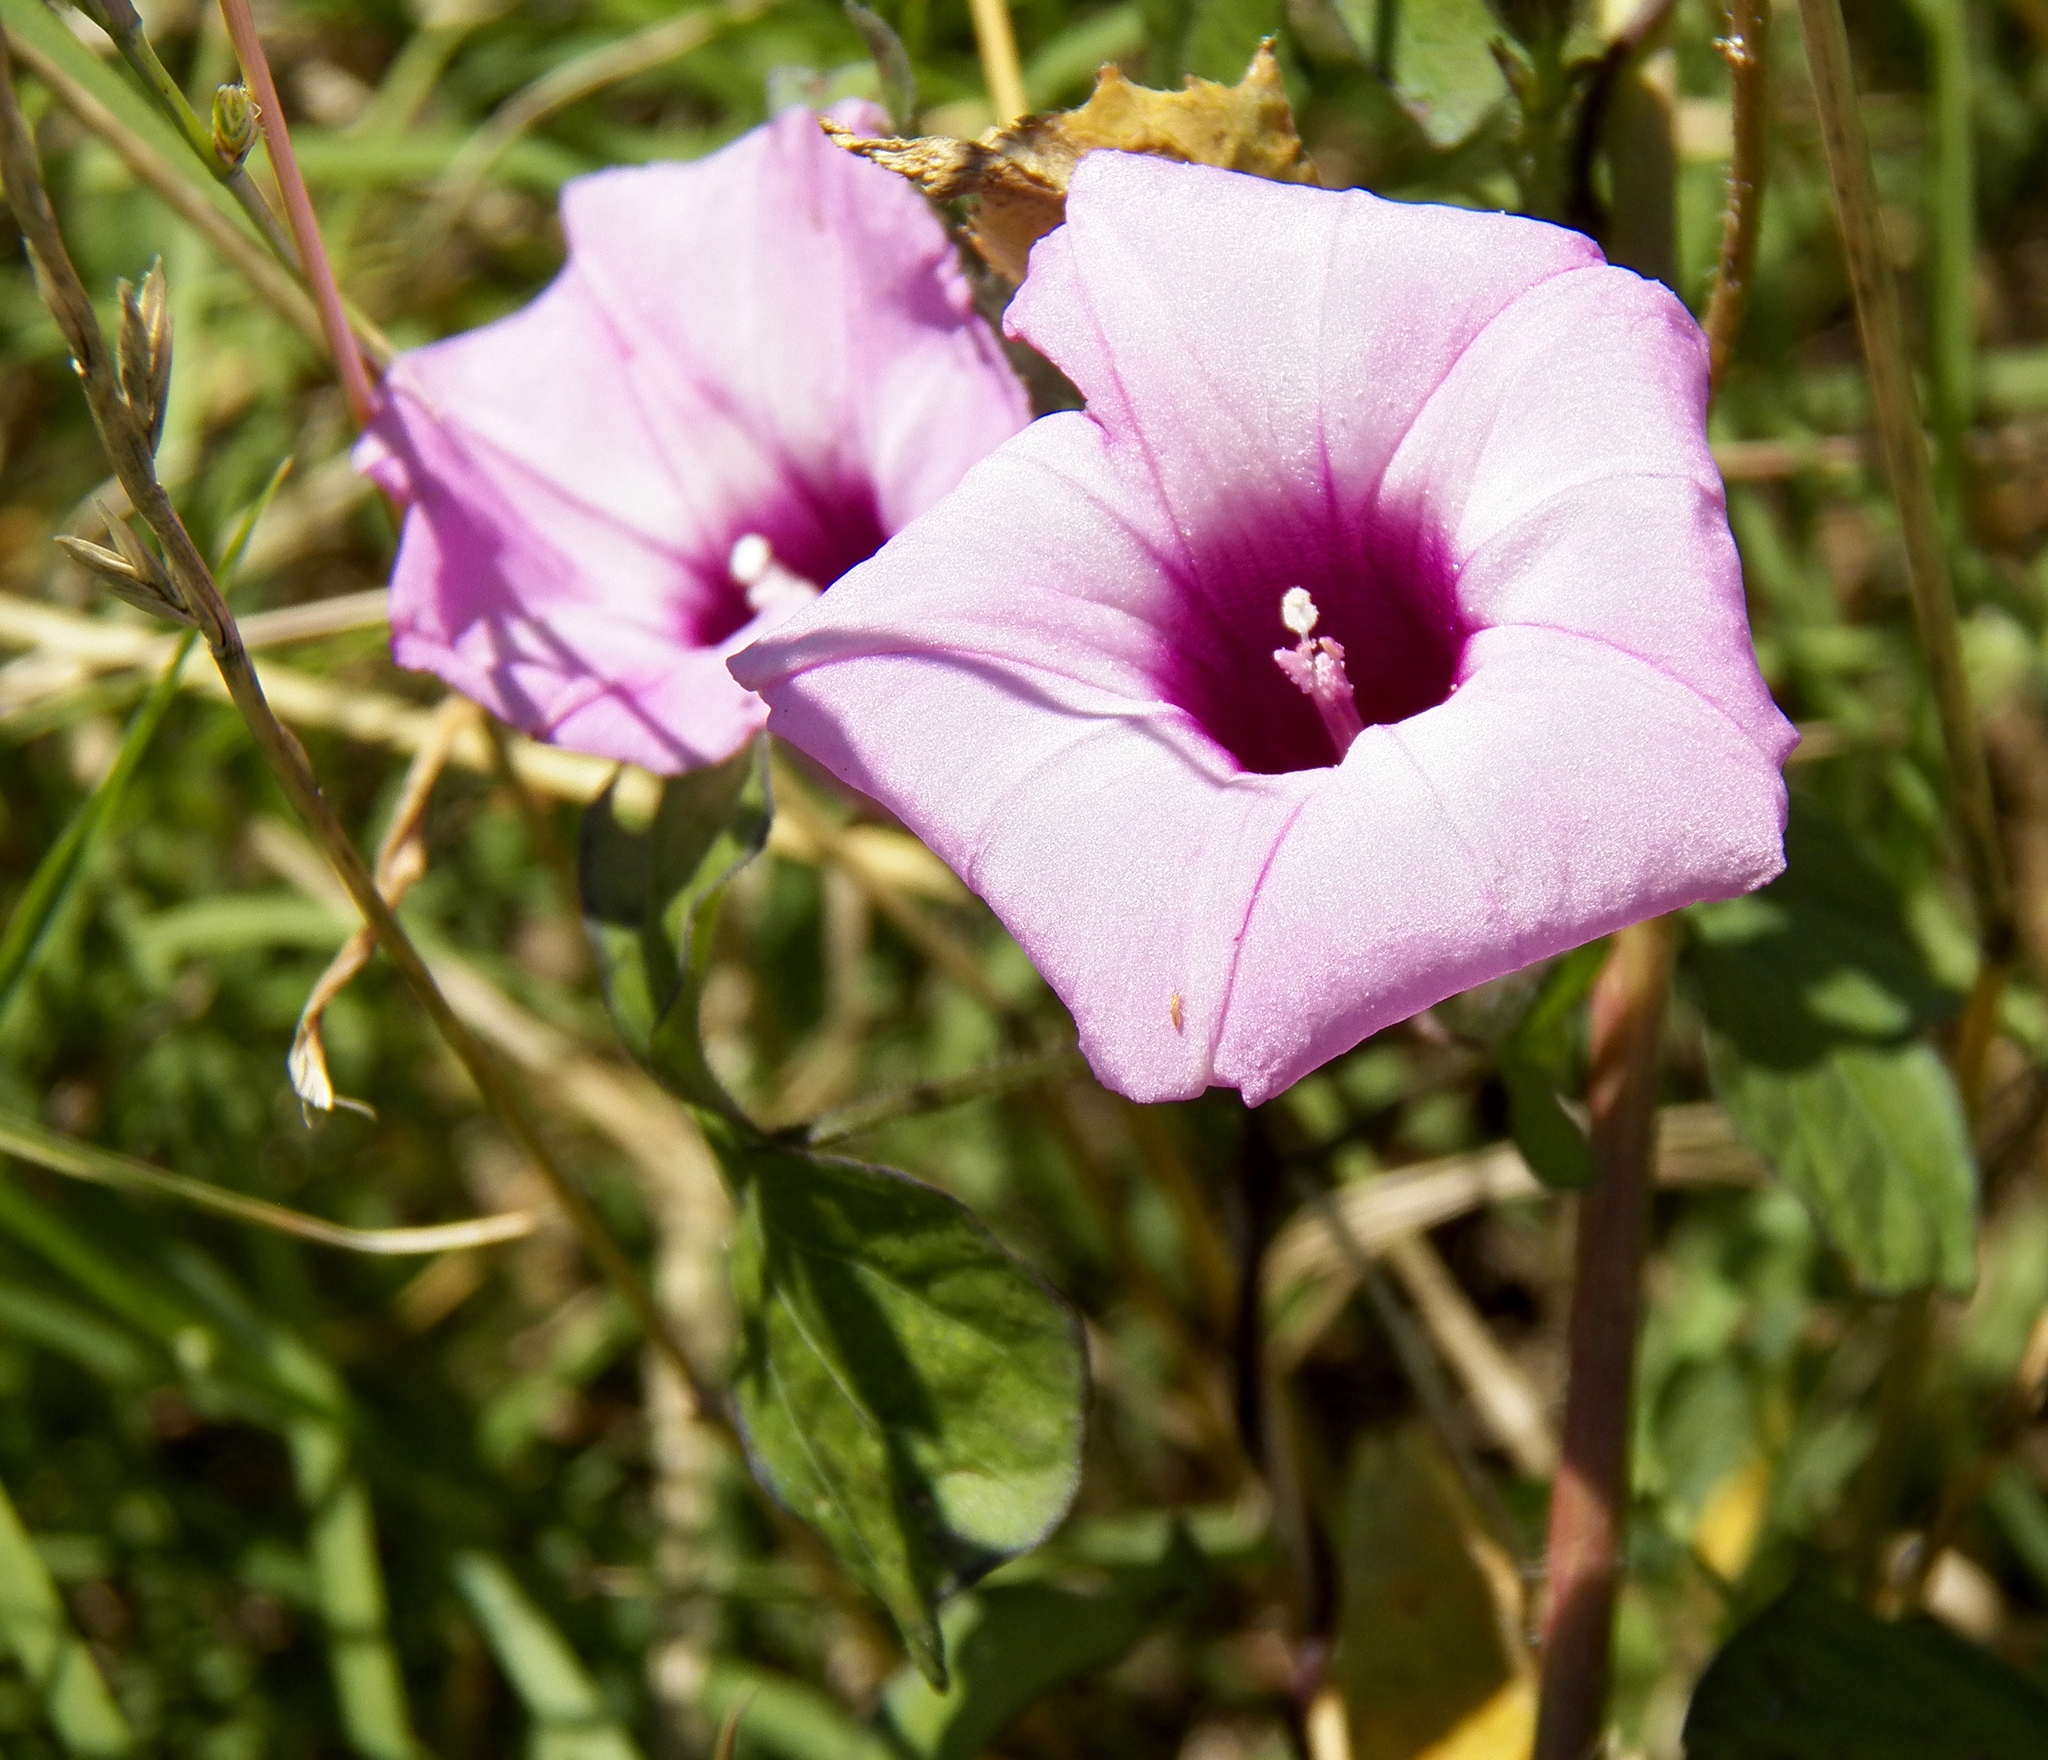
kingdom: Plantae
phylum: Tracheophyta
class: Magnoliopsida
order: Solanales
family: Convolvulaceae
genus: Ipomoea
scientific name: Ipomoea cordatotriloba
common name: Cotton morning glory
